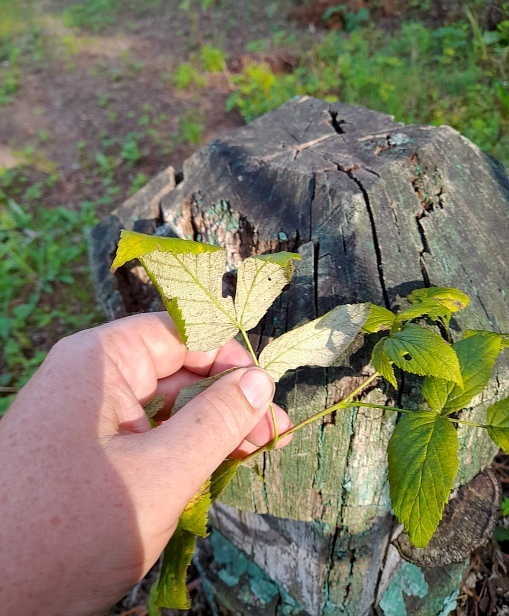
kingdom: Plantae
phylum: Tracheophyta
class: Magnoliopsida
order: Rosales
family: Rosaceae
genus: Rubus
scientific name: Rubus idaeus
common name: Raspberry
